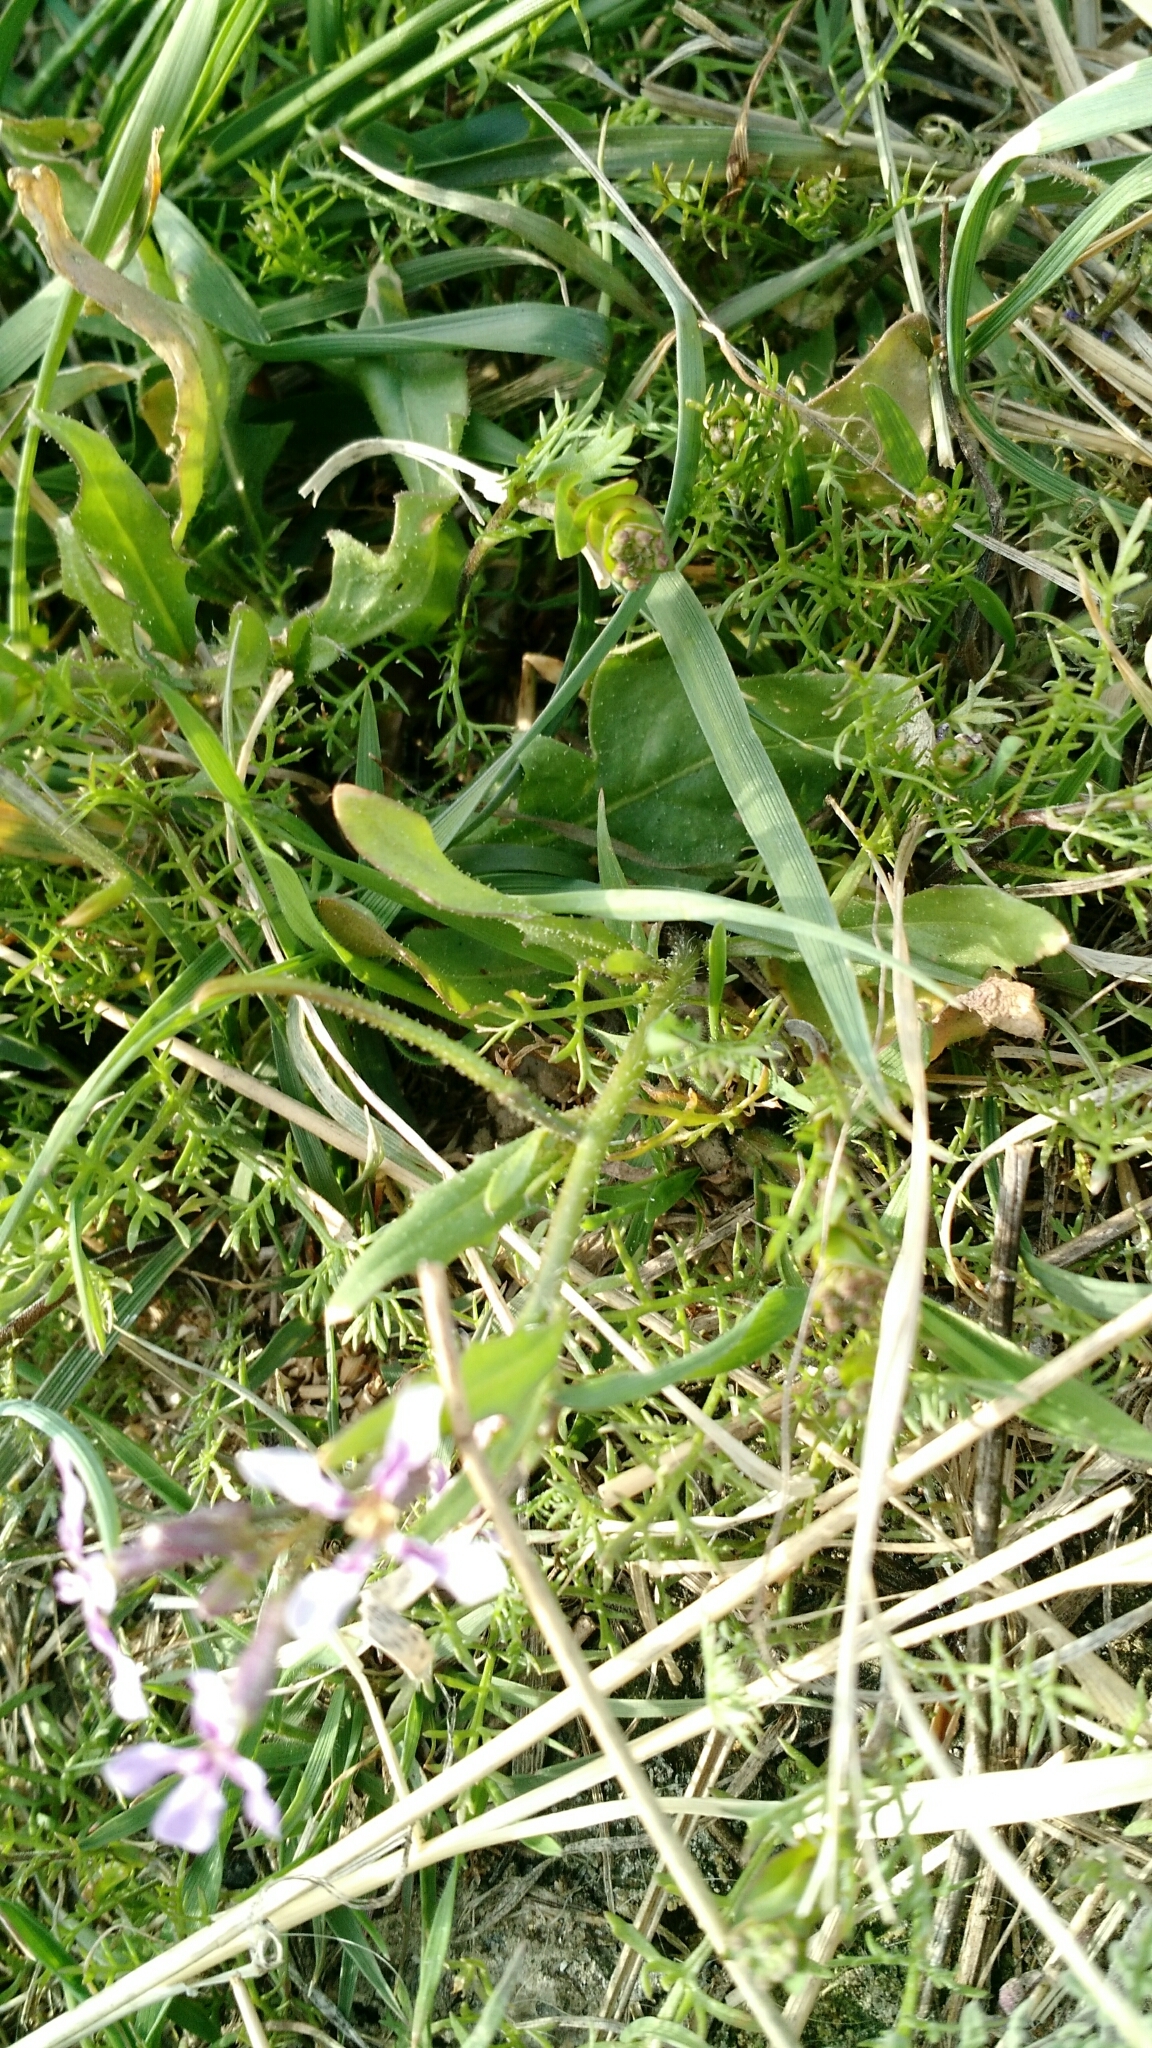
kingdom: Plantae
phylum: Tracheophyta
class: Magnoliopsida
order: Brassicales
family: Brassicaceae
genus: Chorispora
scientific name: Chorispora tenella
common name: Crossflower
